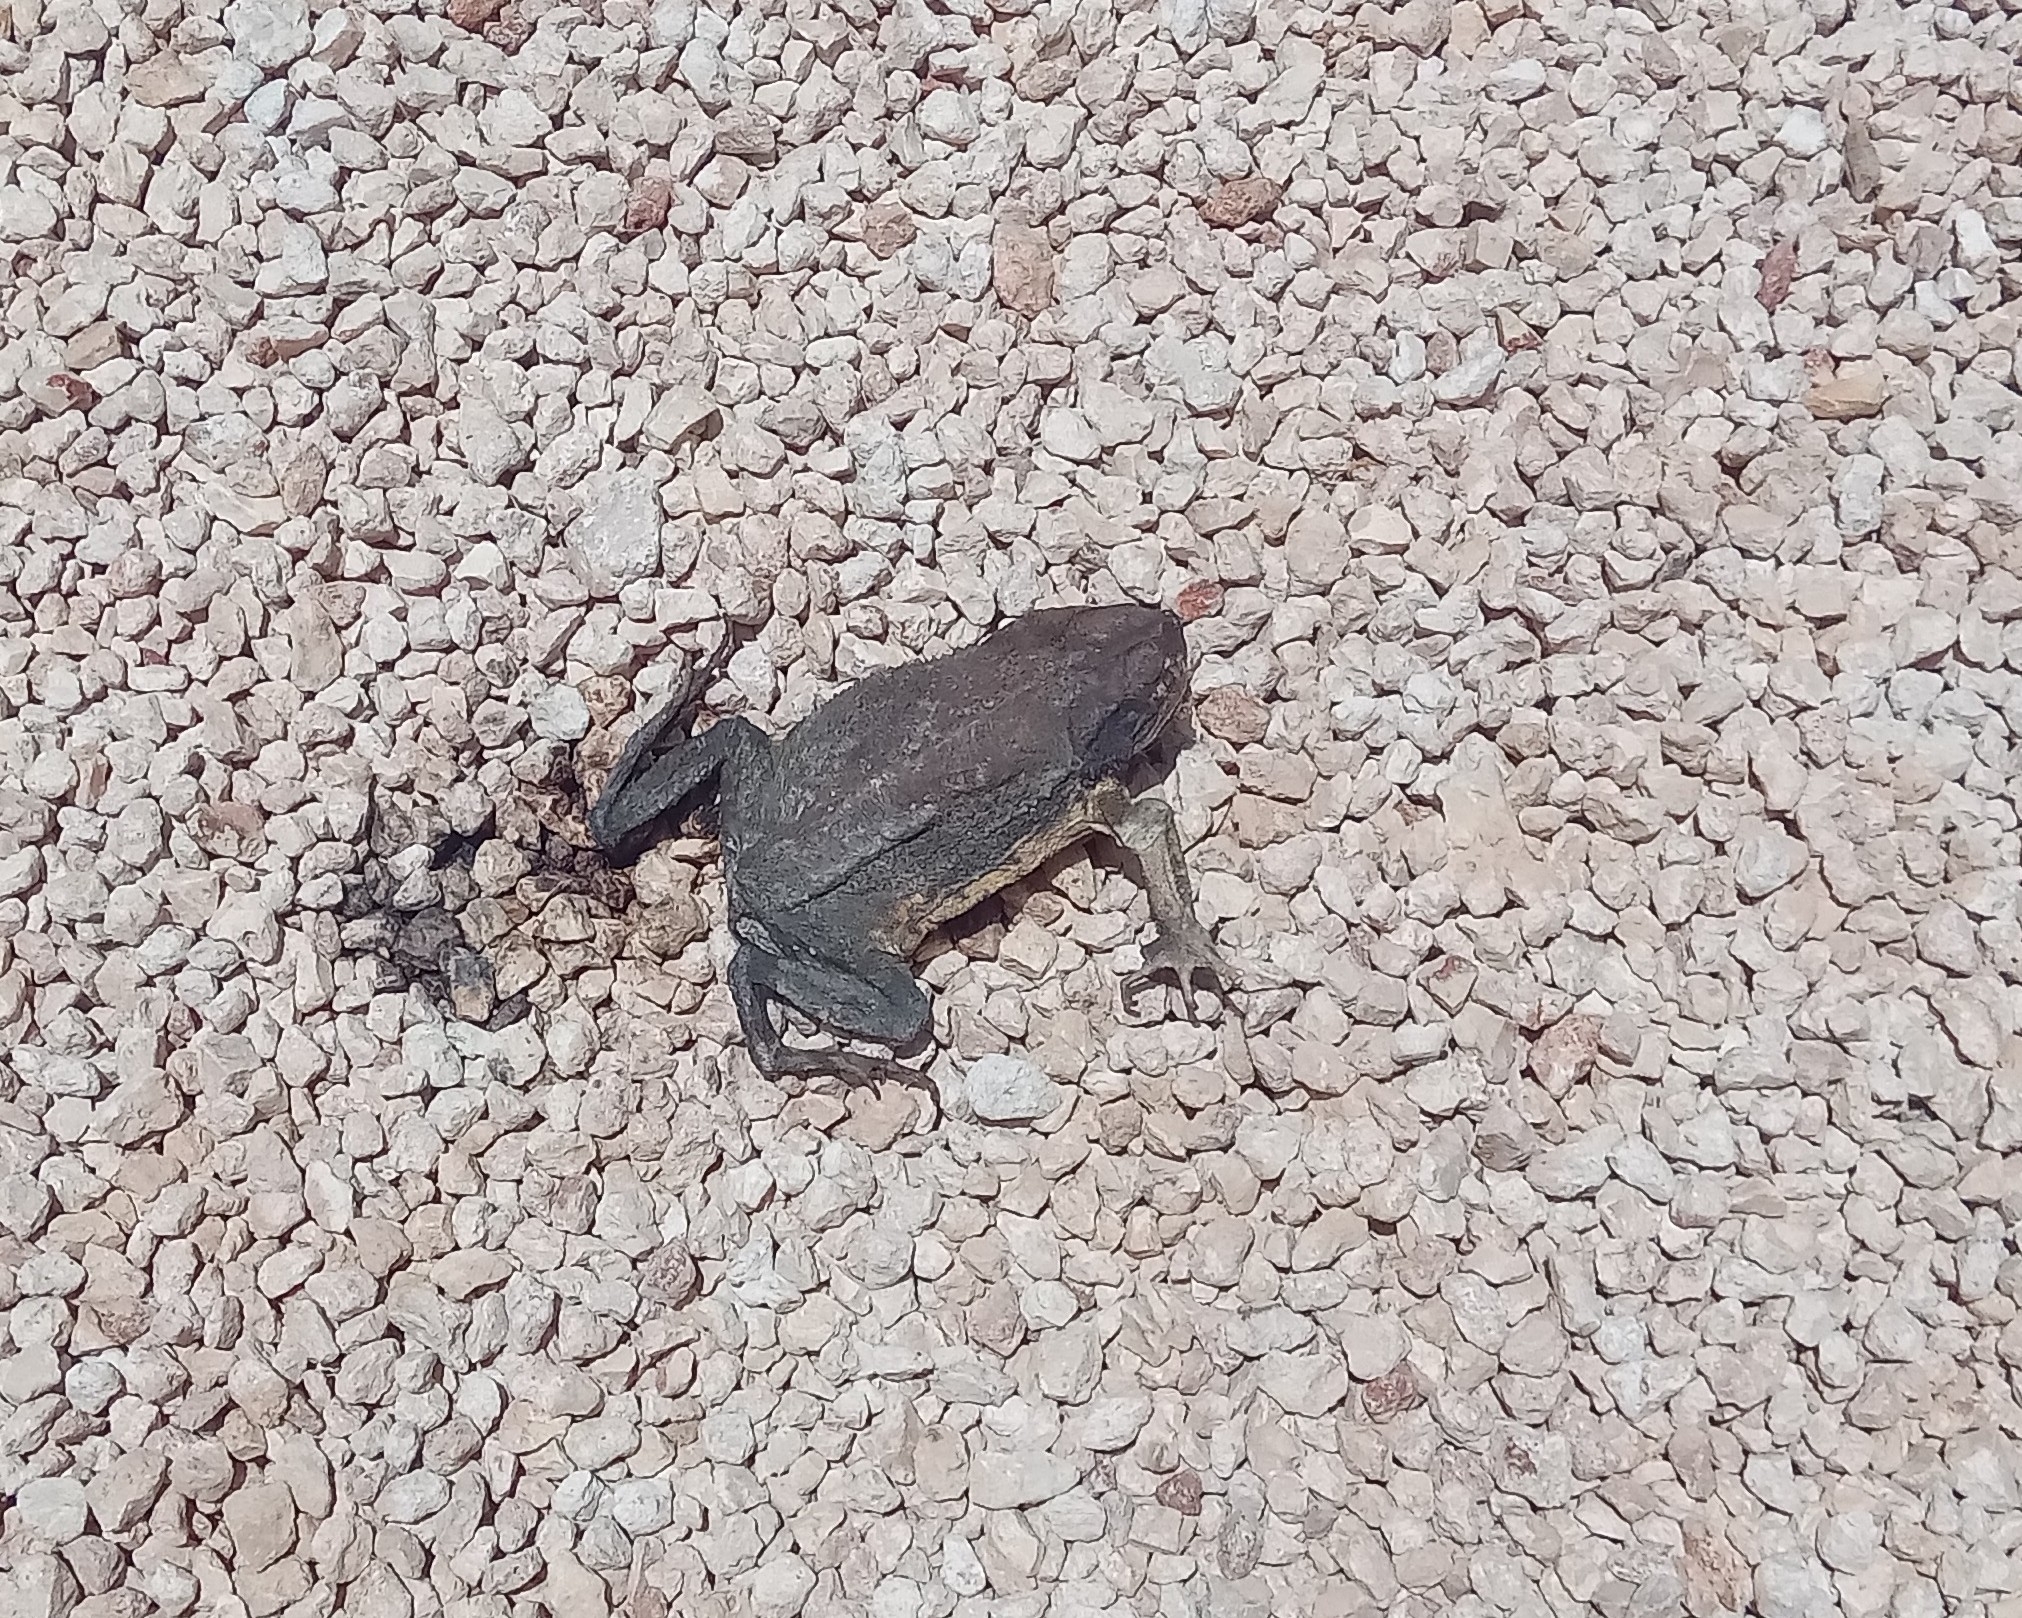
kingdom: Animalia
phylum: Chordata
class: Amphibia
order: Anura
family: Bufonidae
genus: Incilius
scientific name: Incilius valliceps
